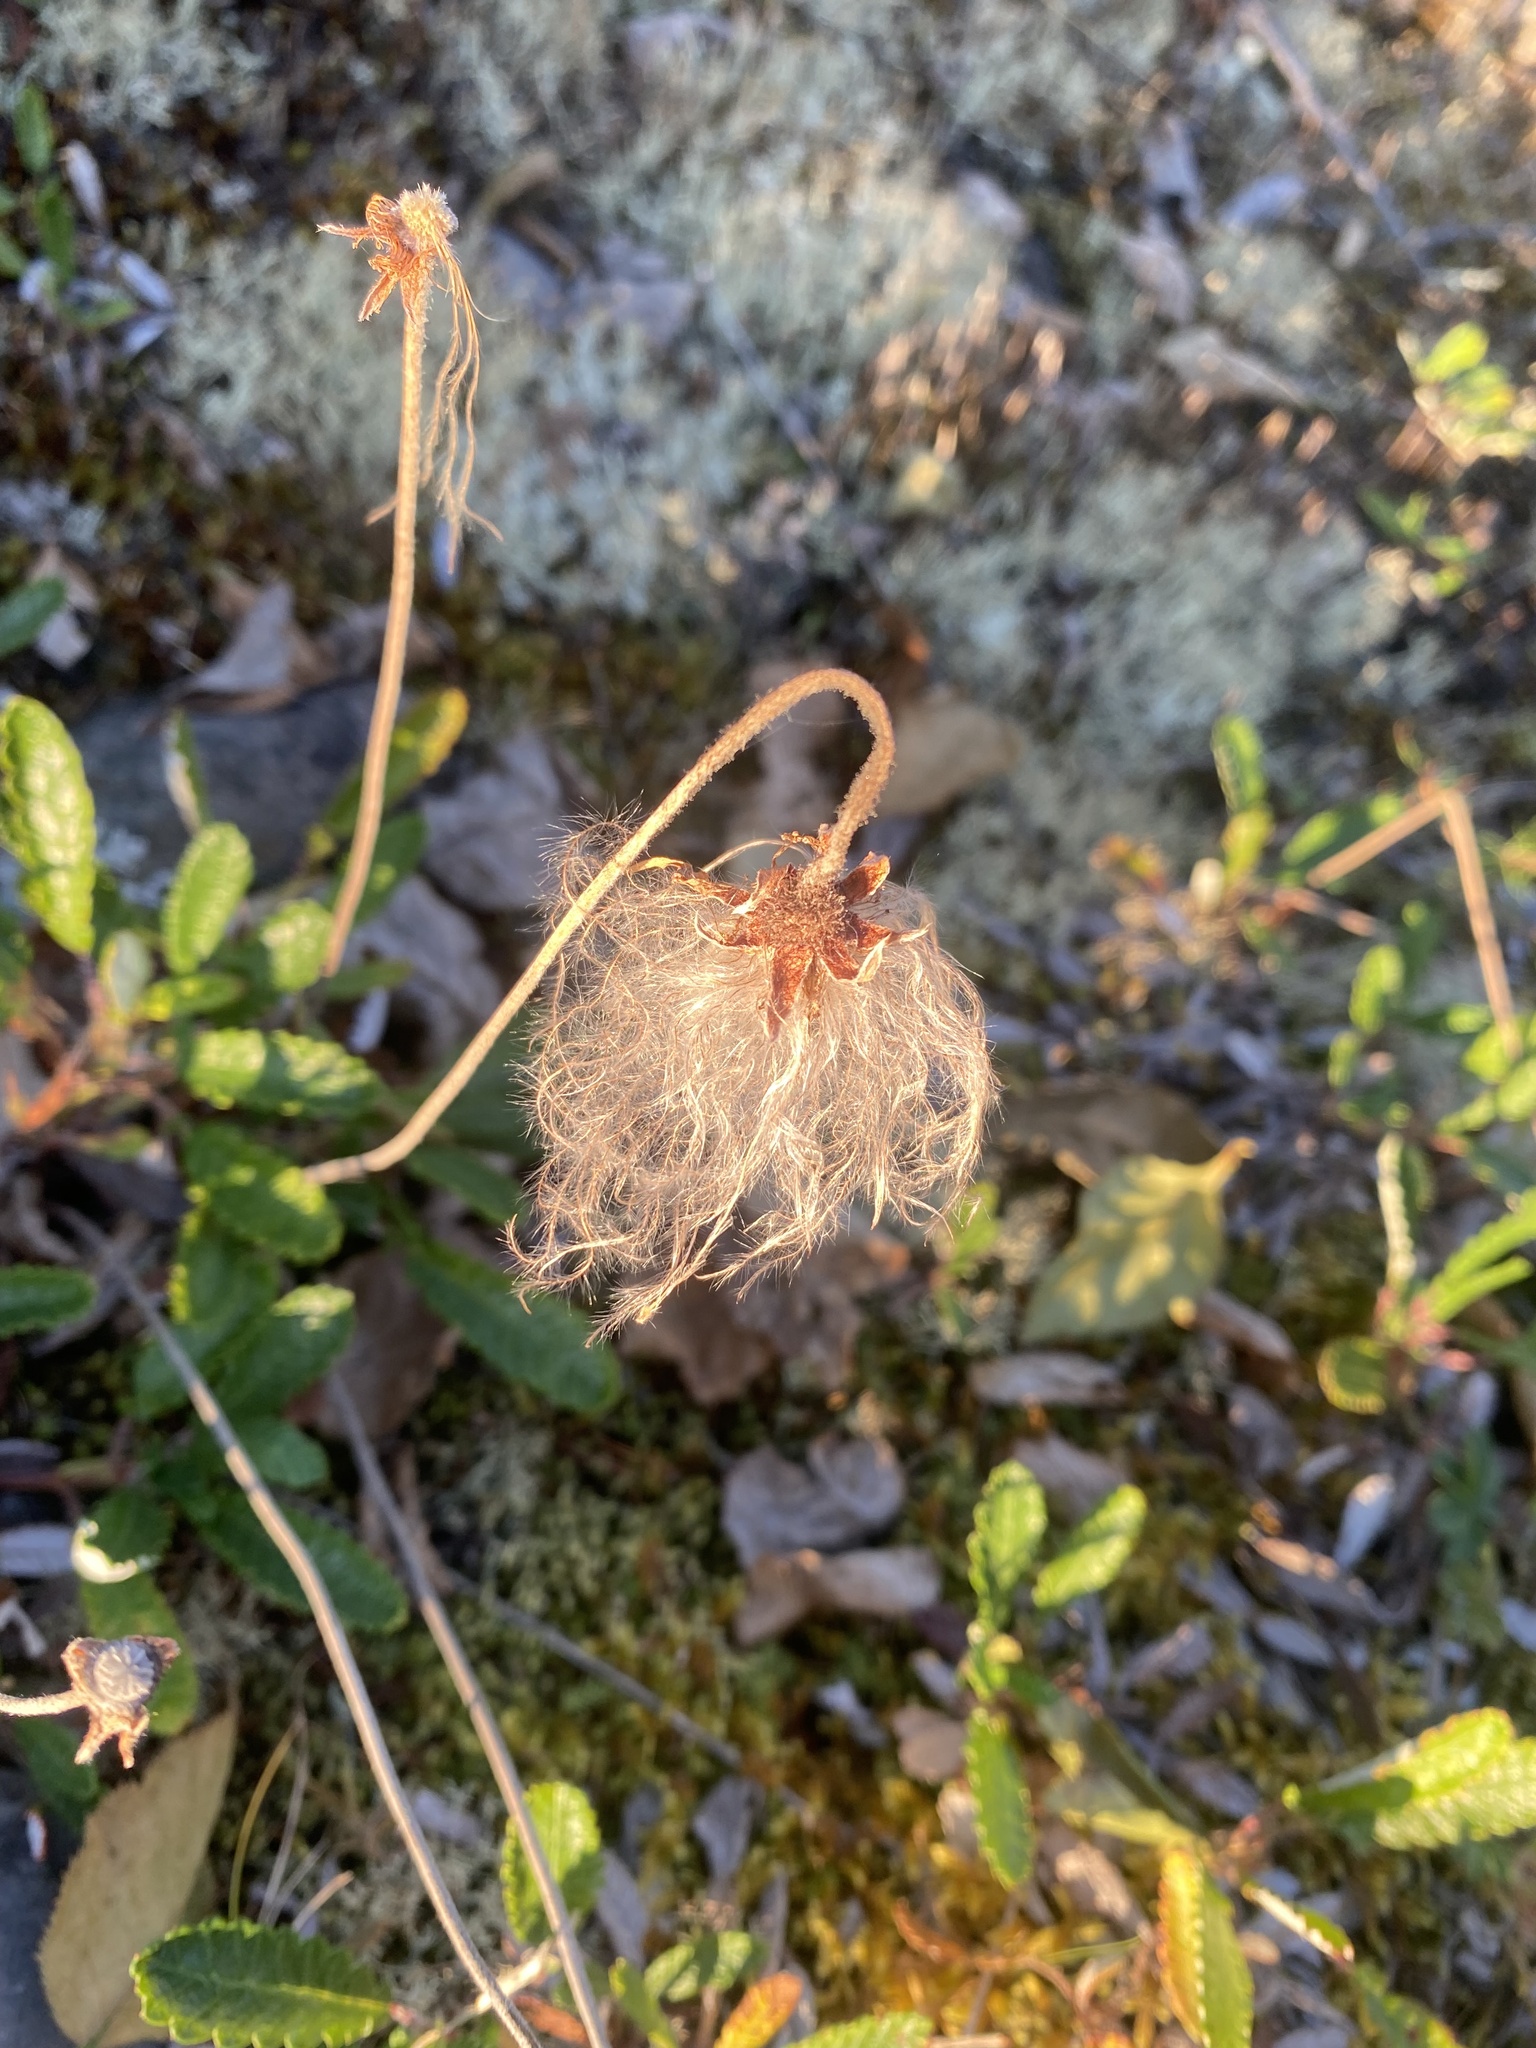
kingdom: Plantae
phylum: Tracheophyta
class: Magnoliopsida
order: Rosales
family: Rosaceae
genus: Dryas
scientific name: Dryas grandis
